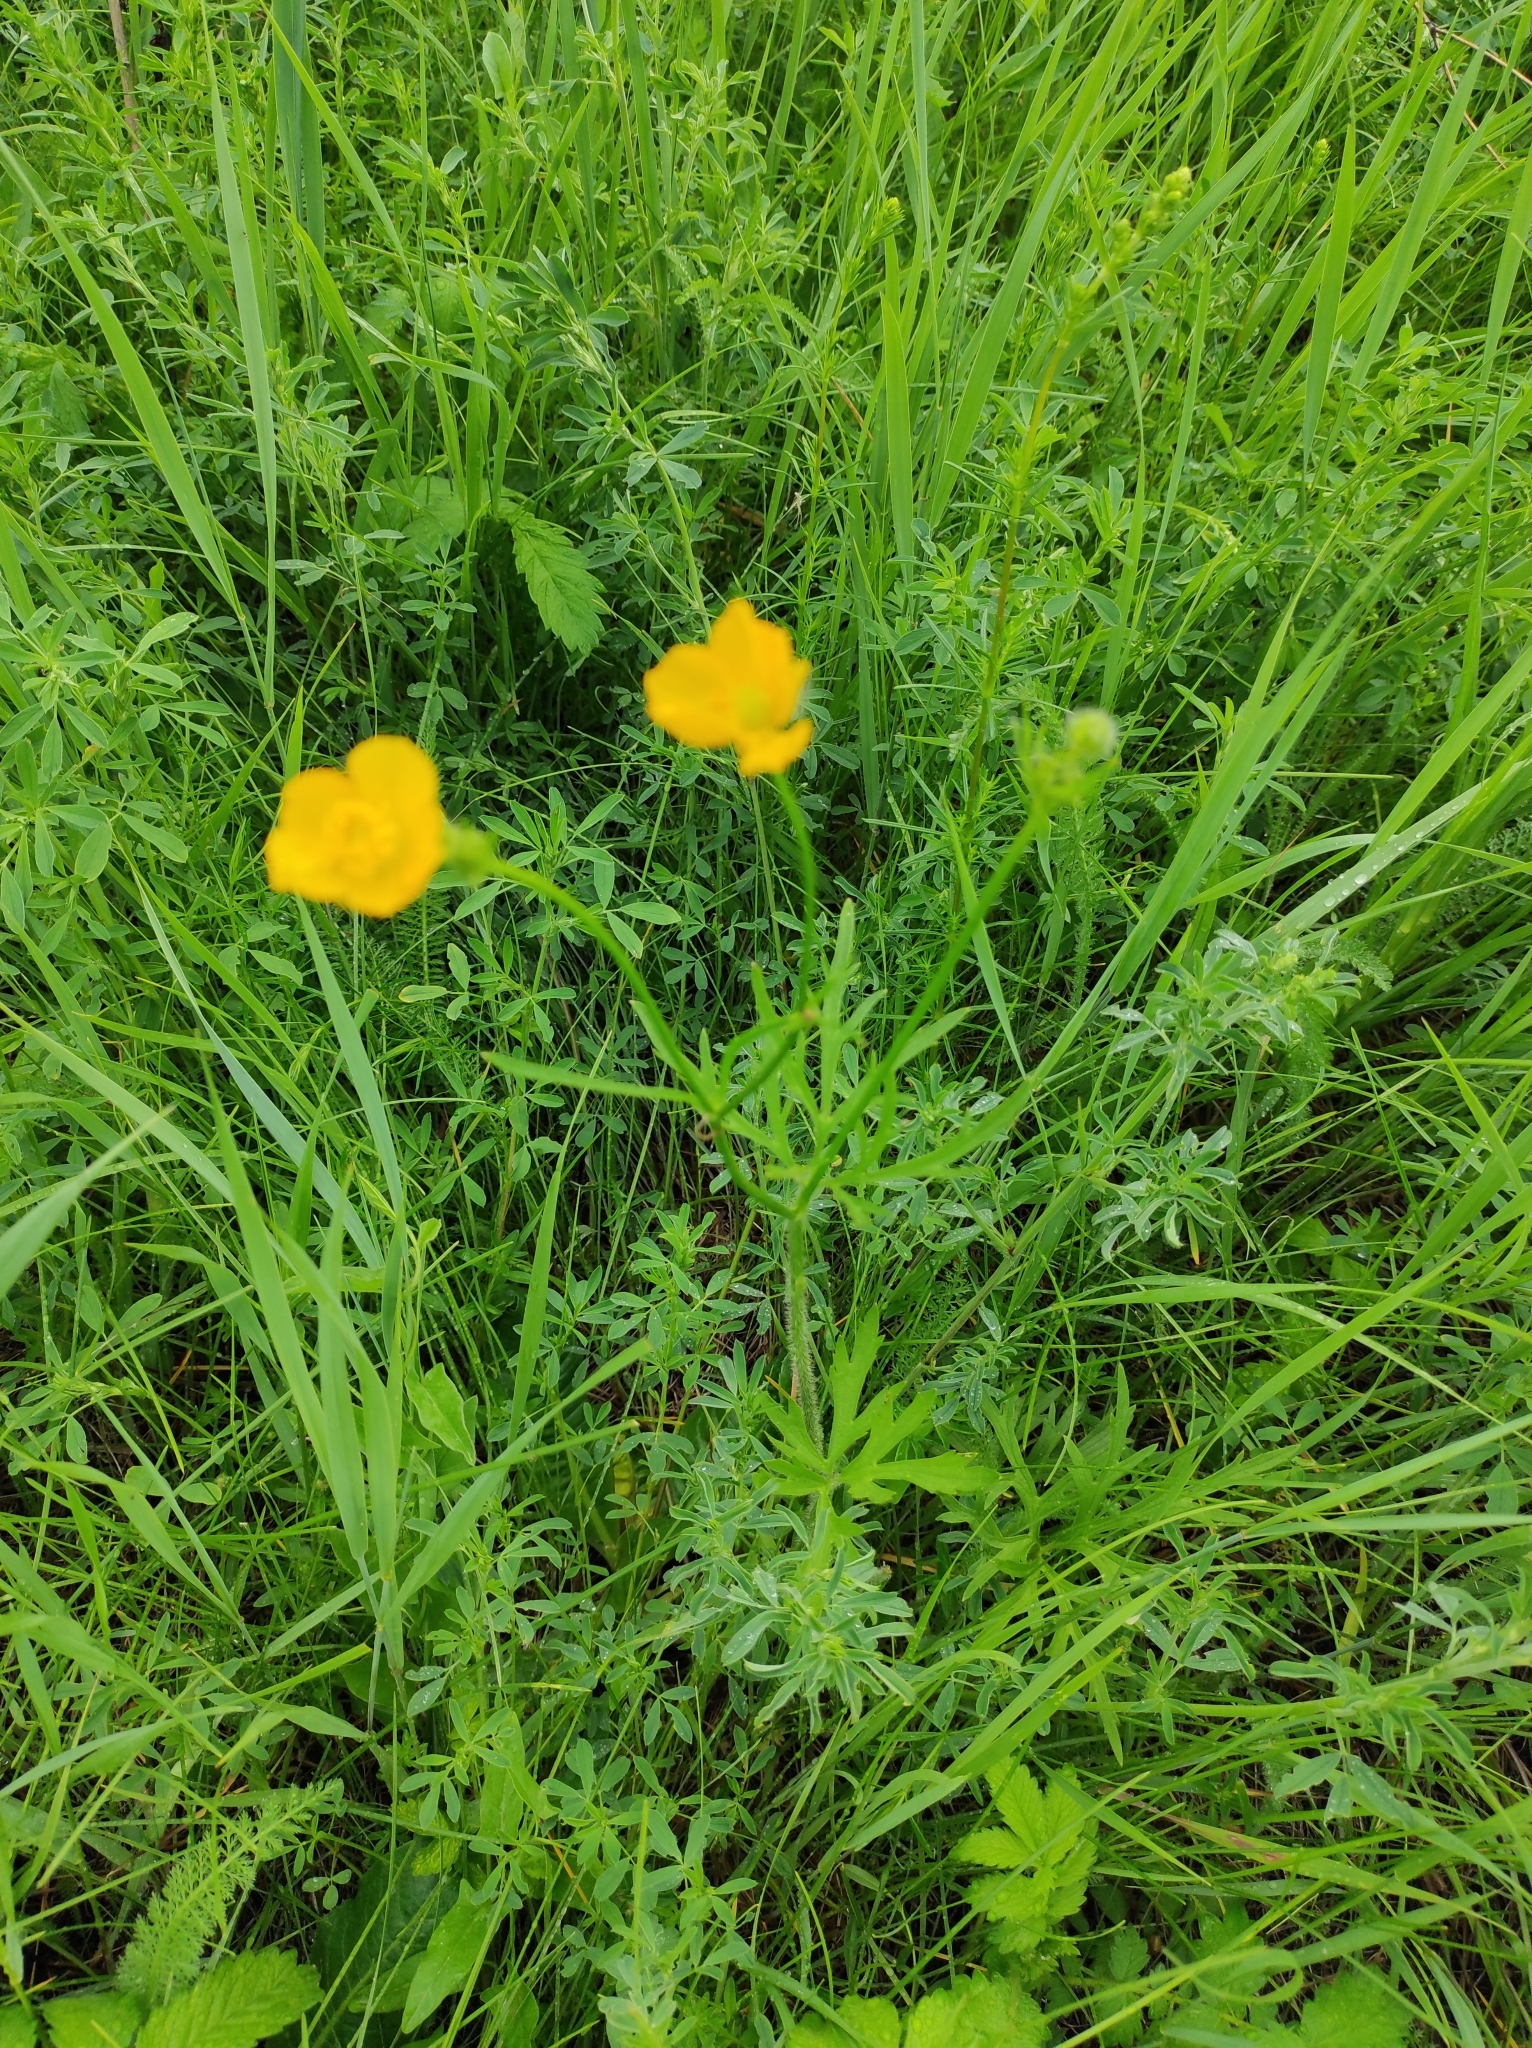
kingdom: Plantae
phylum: Tracheophyta
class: Magnoliopsida
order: Ranunculales
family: Ranunculaceae
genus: Ranunculus
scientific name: Ranunculus polyanthemos
